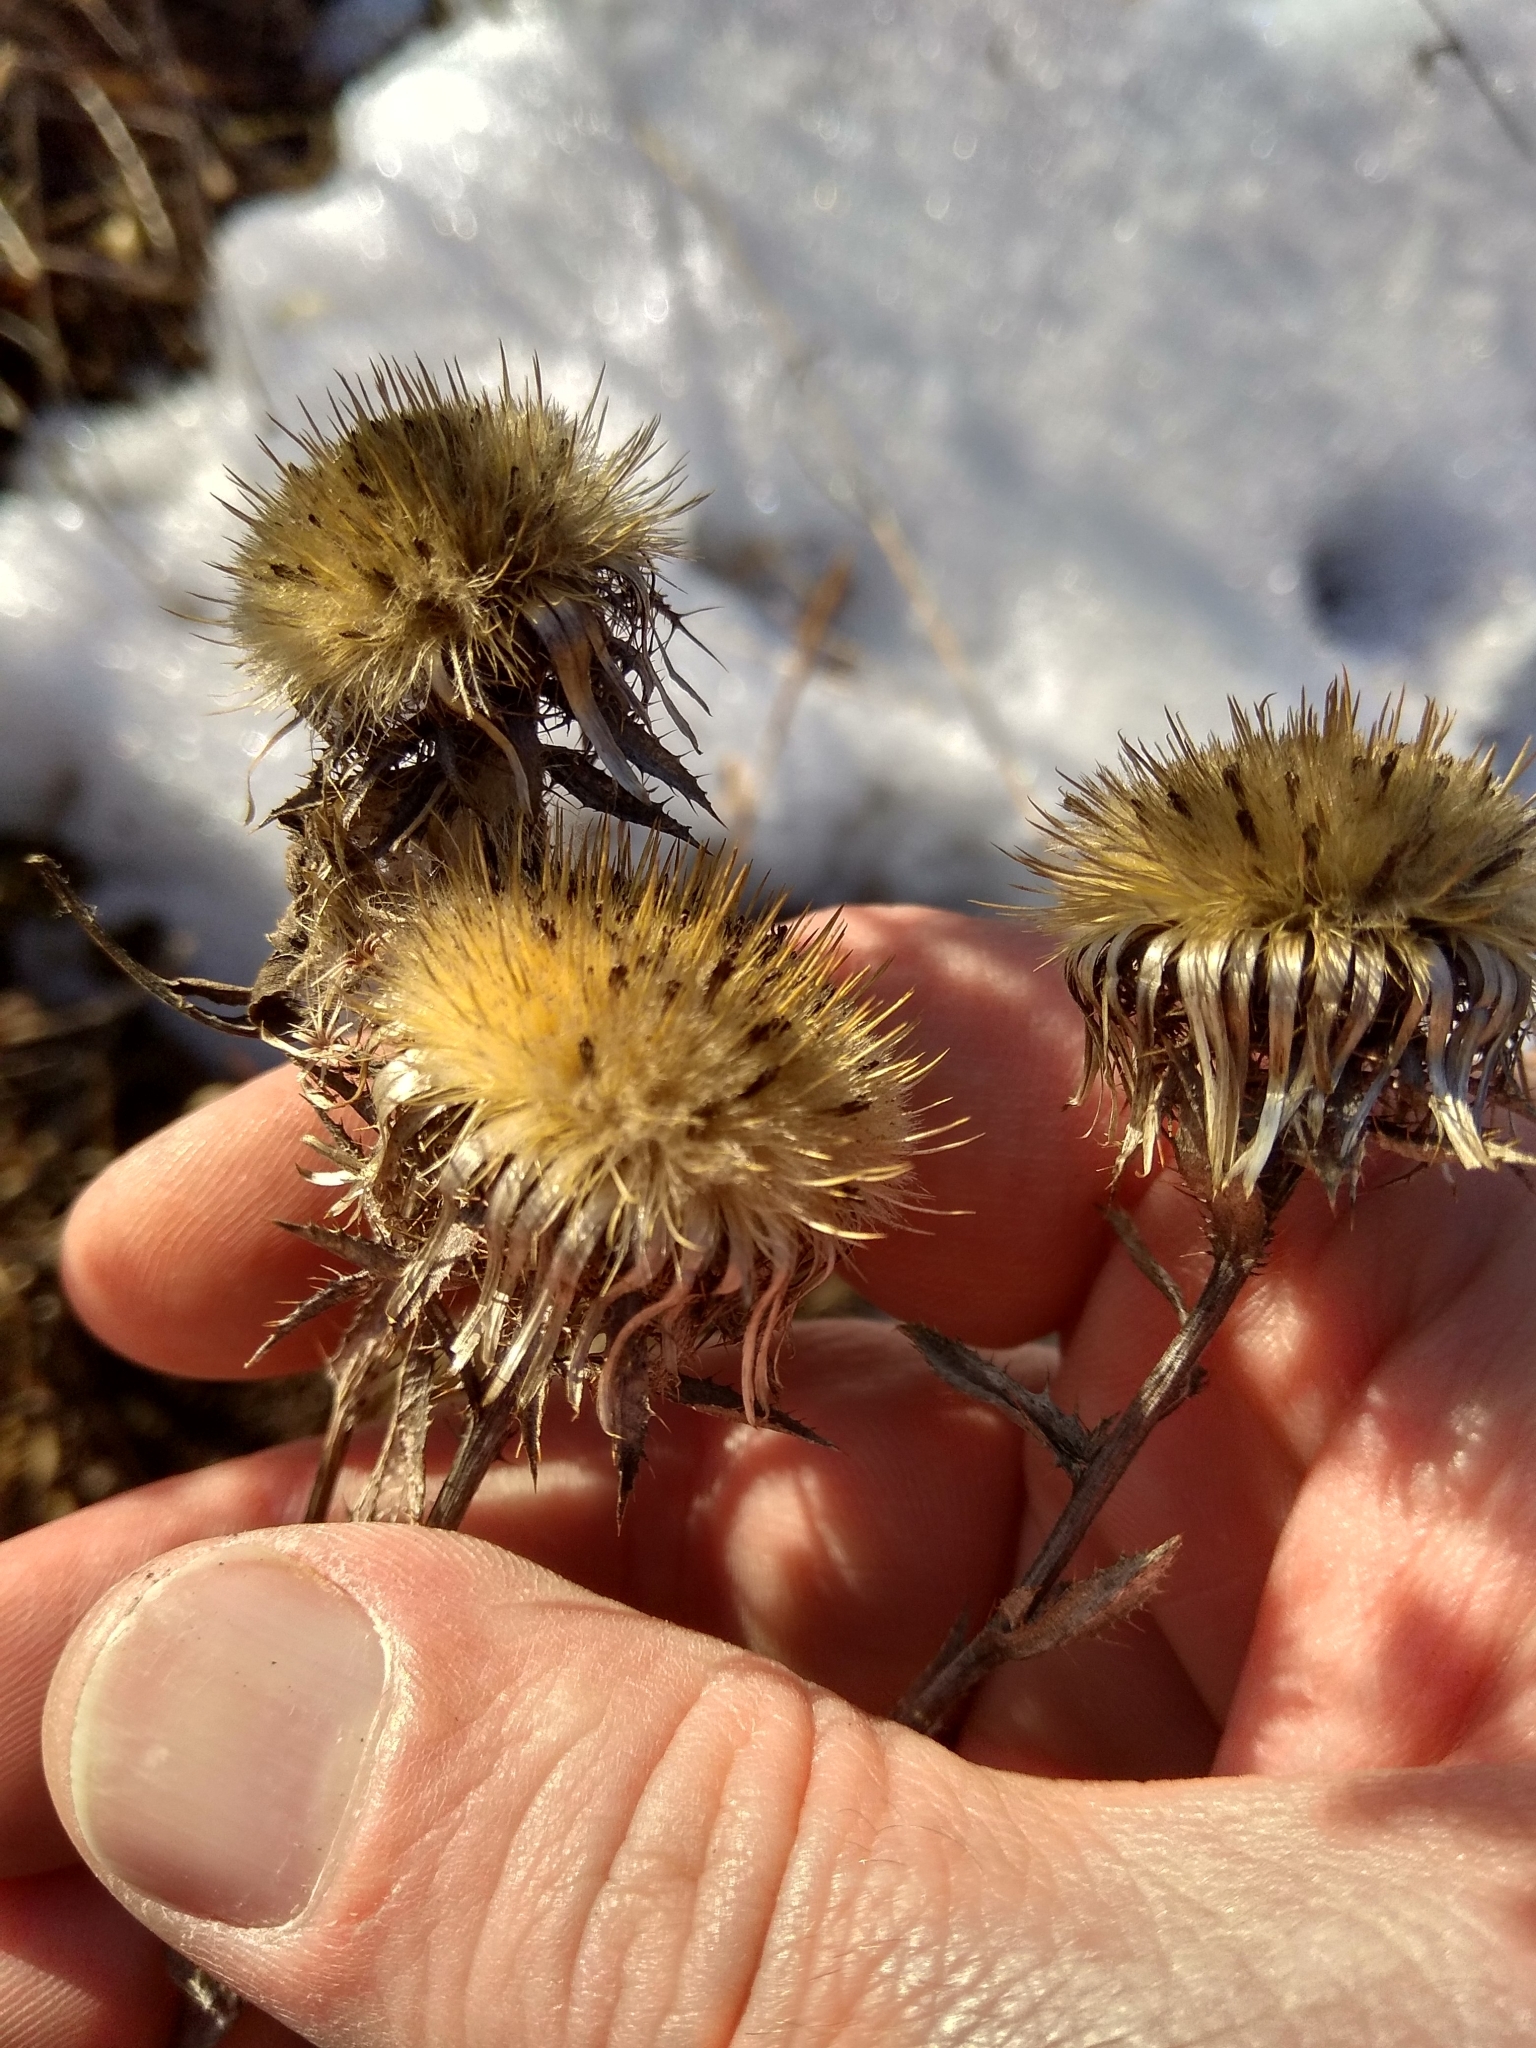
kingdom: Plantae
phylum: Tracheophyta
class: Magnoliopsida
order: Asterales
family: Asteraceae
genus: Carlina
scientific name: Carlina biebersteinii
